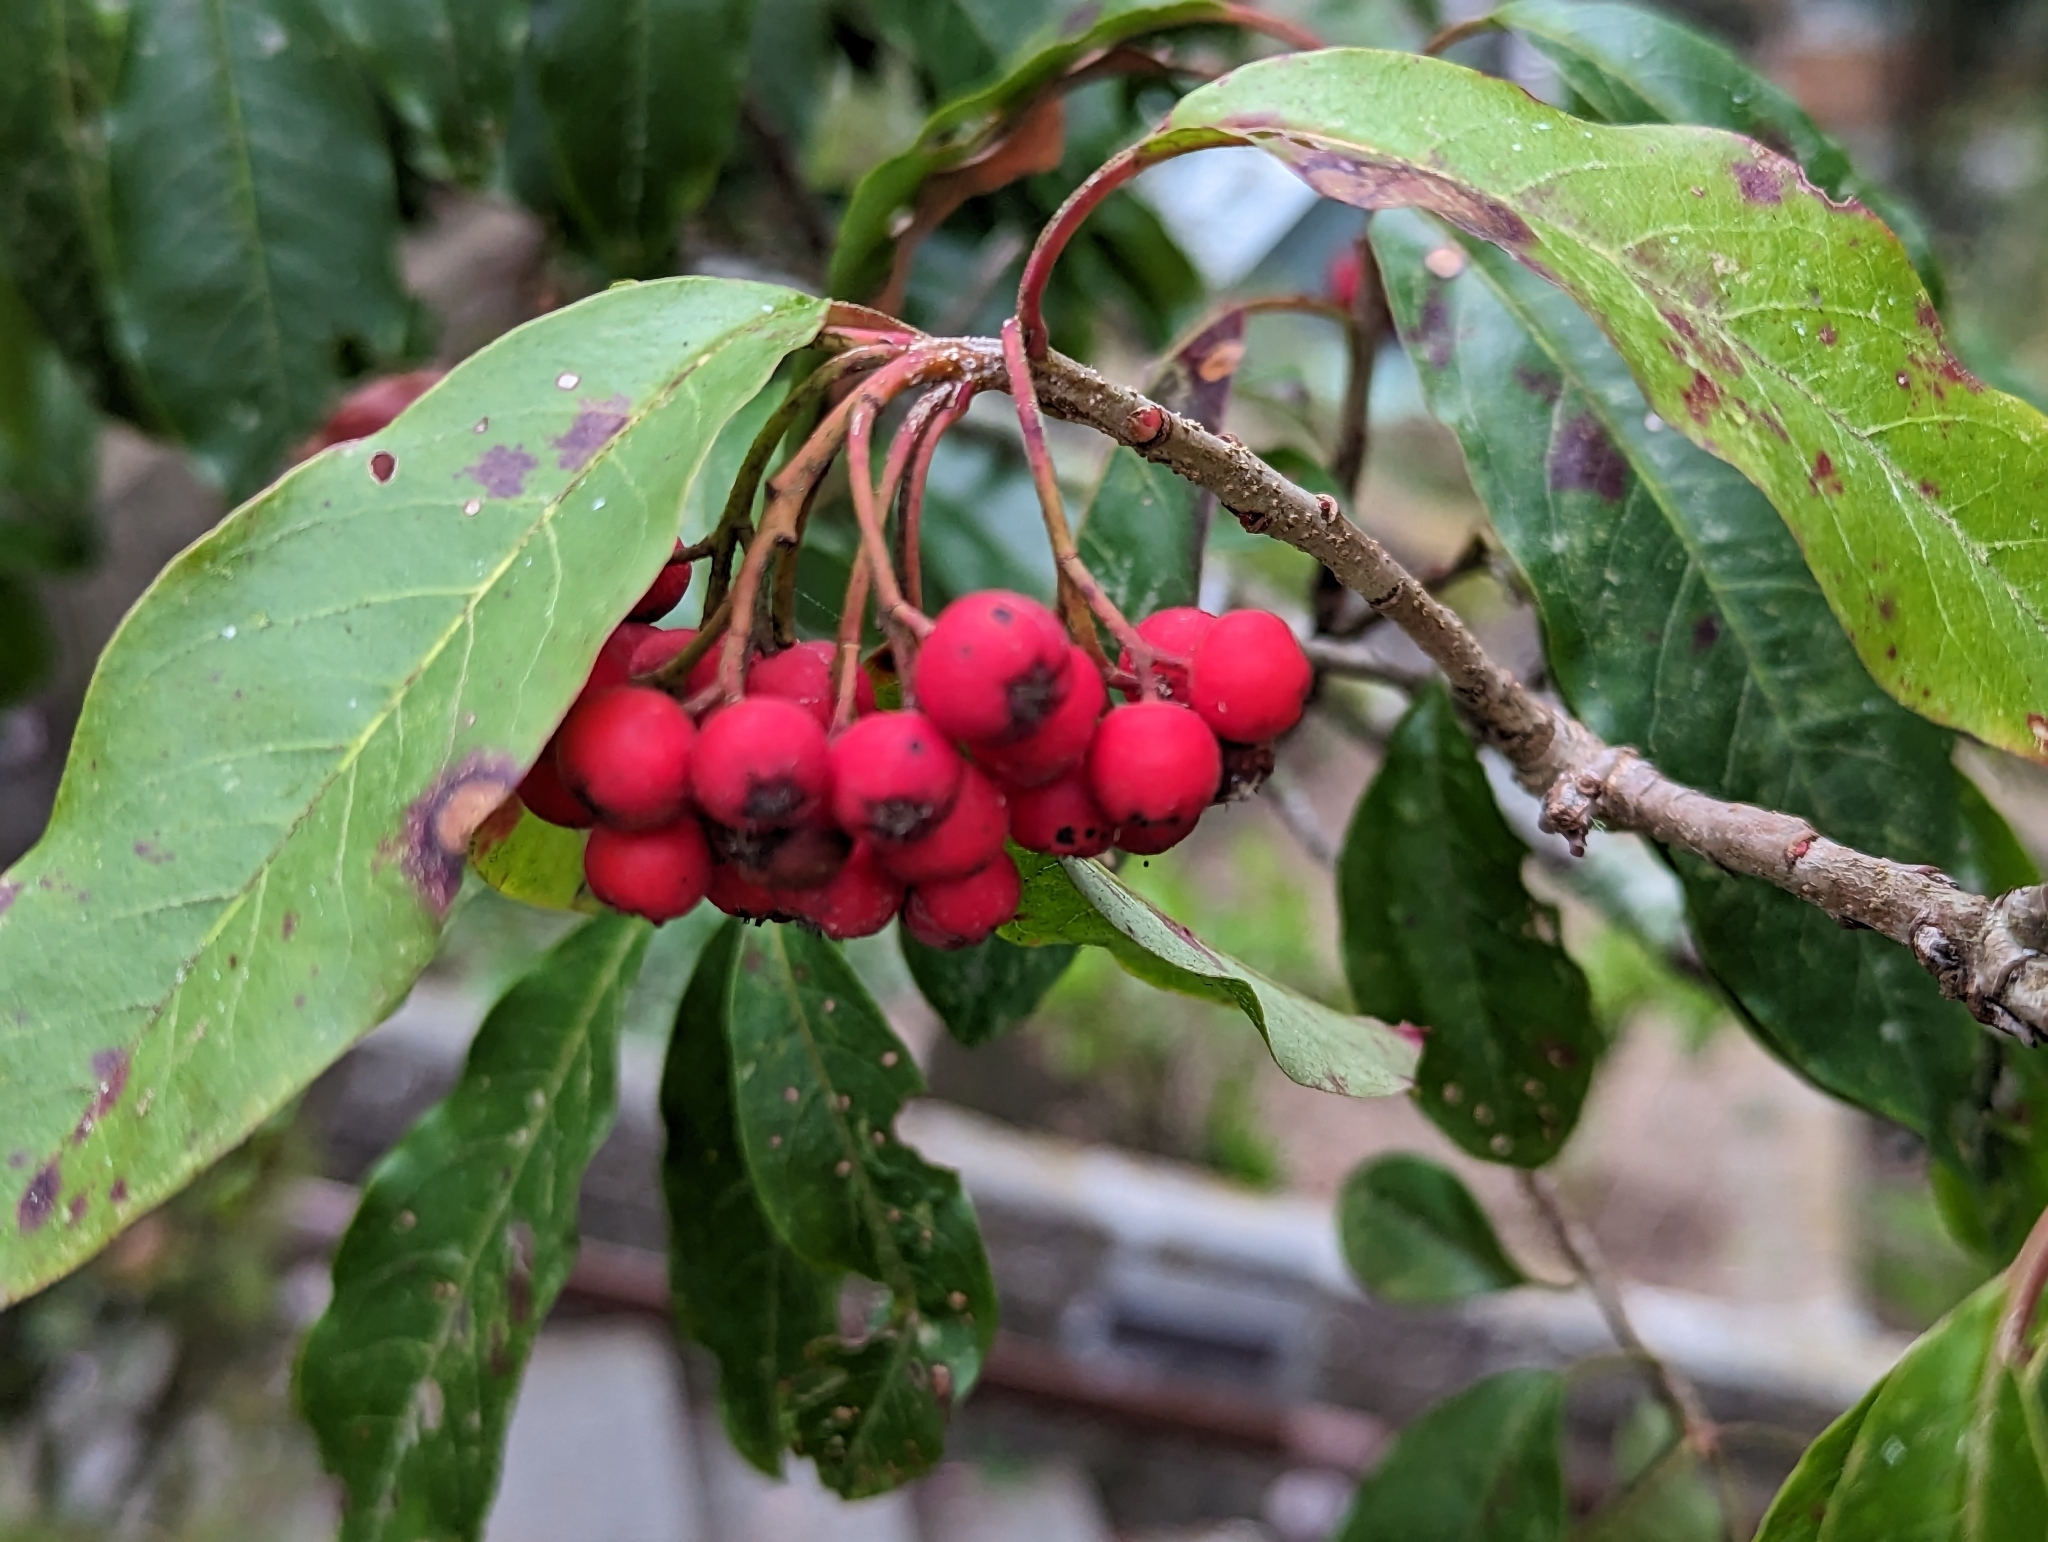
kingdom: Plantae
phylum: Tracheophyta
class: Magnoliopsida
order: Rosales
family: Rosaceae
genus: Stranvaesia
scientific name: Stranvaesia davidiana
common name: Chinese photinia
